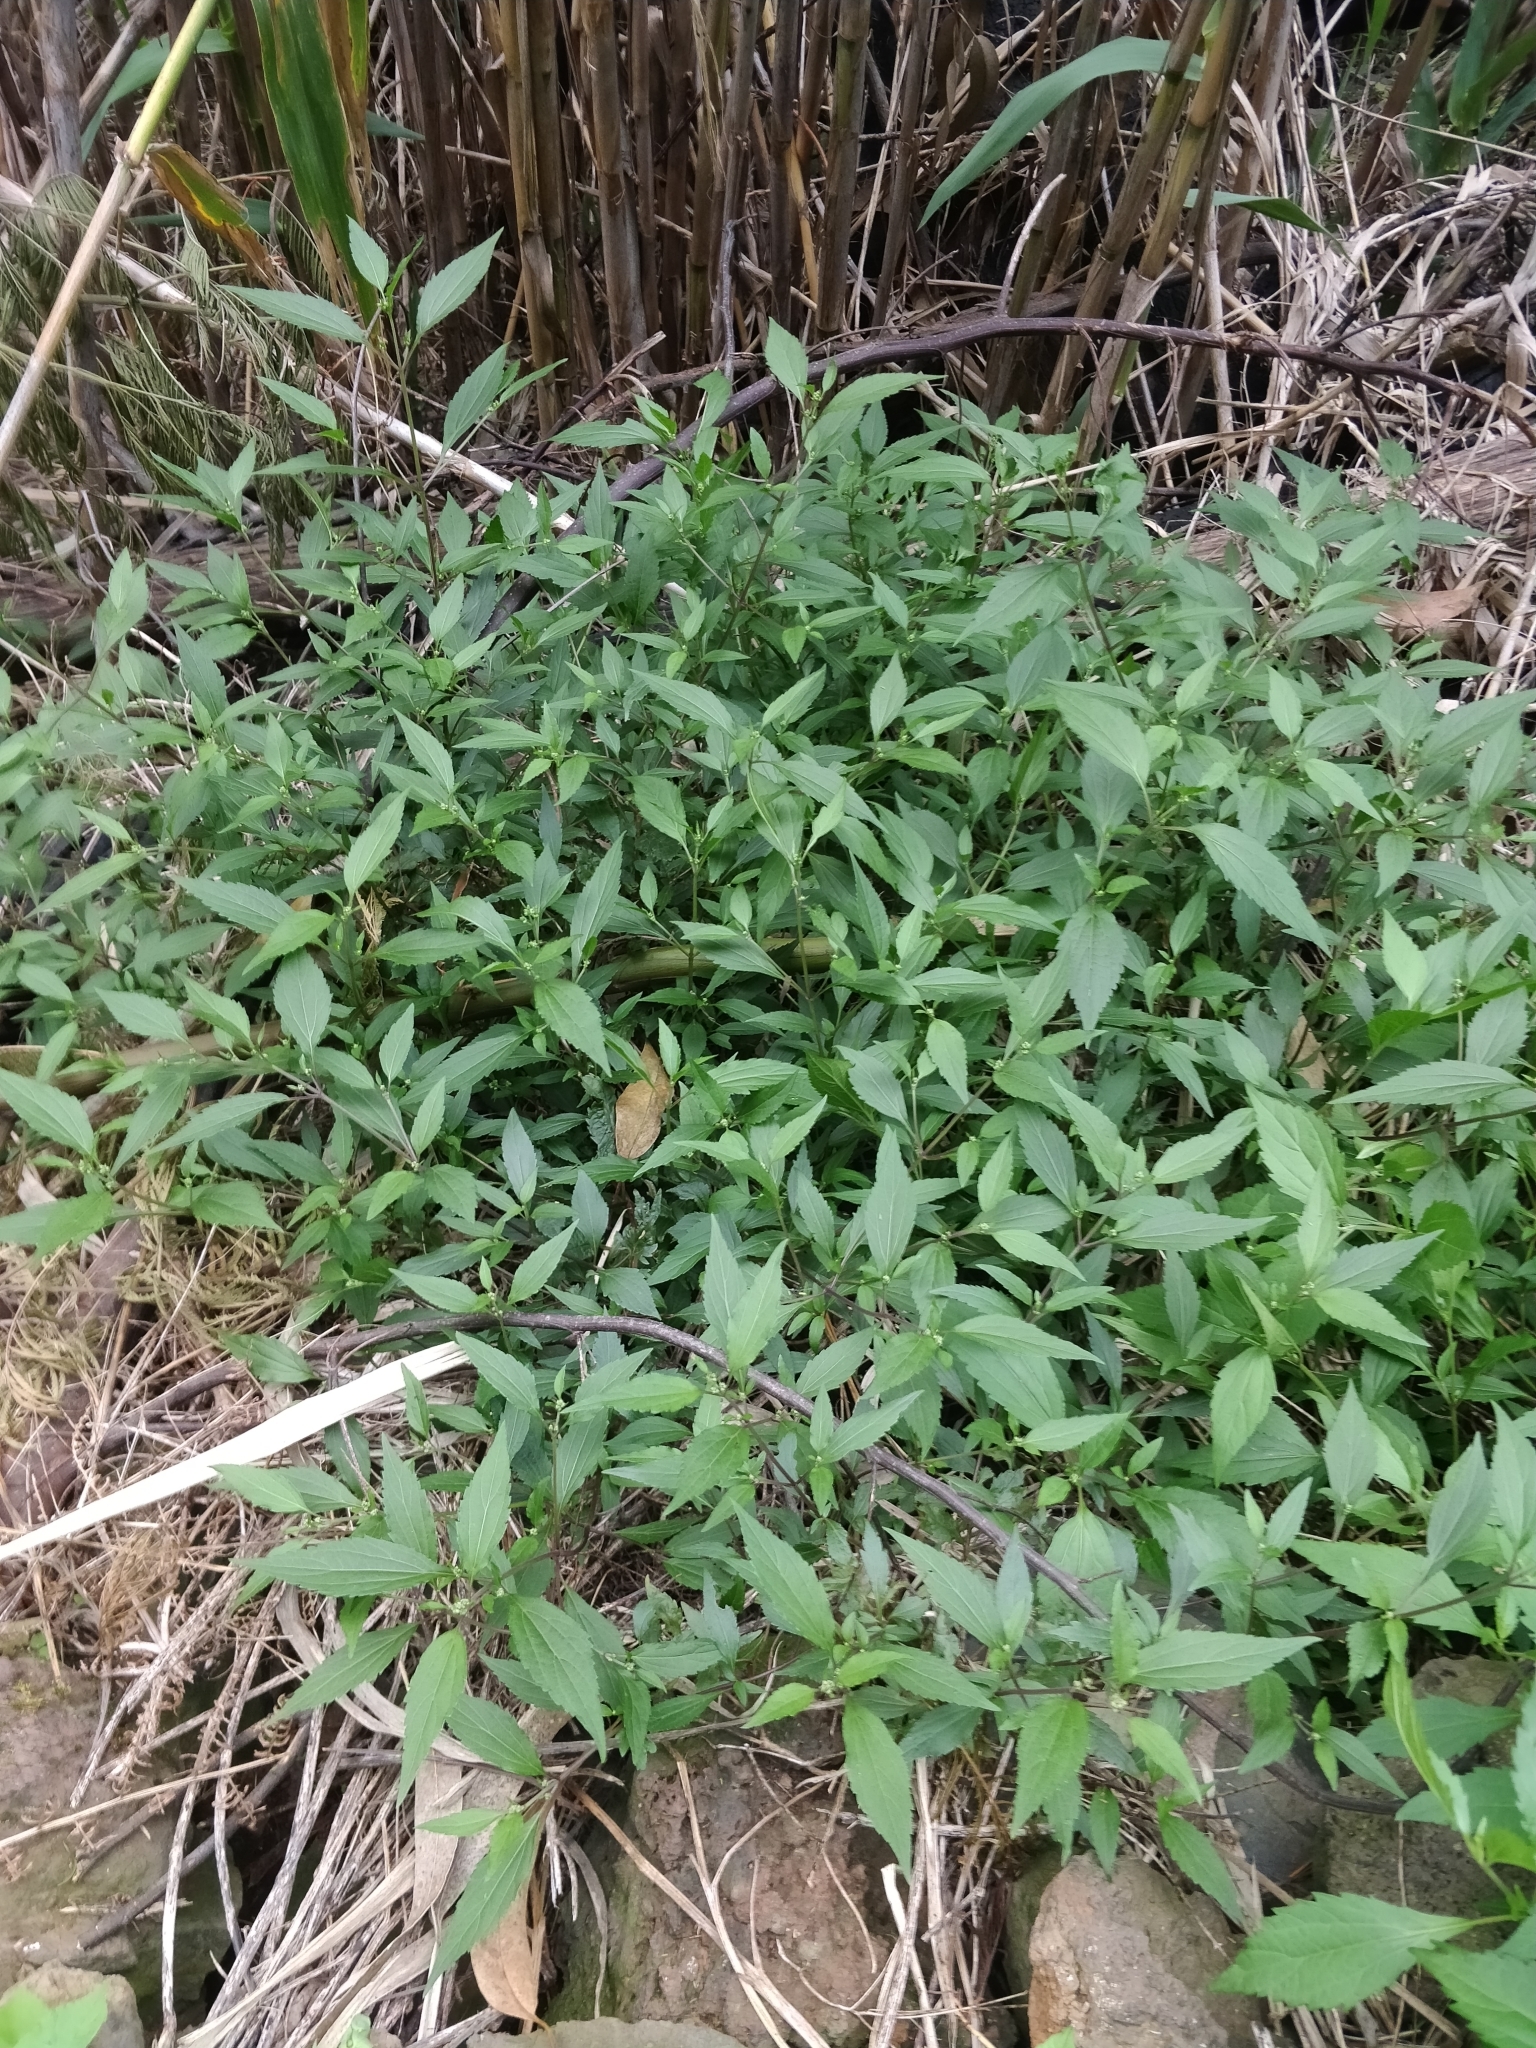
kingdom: Plantae
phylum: Tracheophyta
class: Magnoliopsida
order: Asterales
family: Asteraceae
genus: Ageratina
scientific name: Ageratina riparia
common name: Creeping croftonweed
